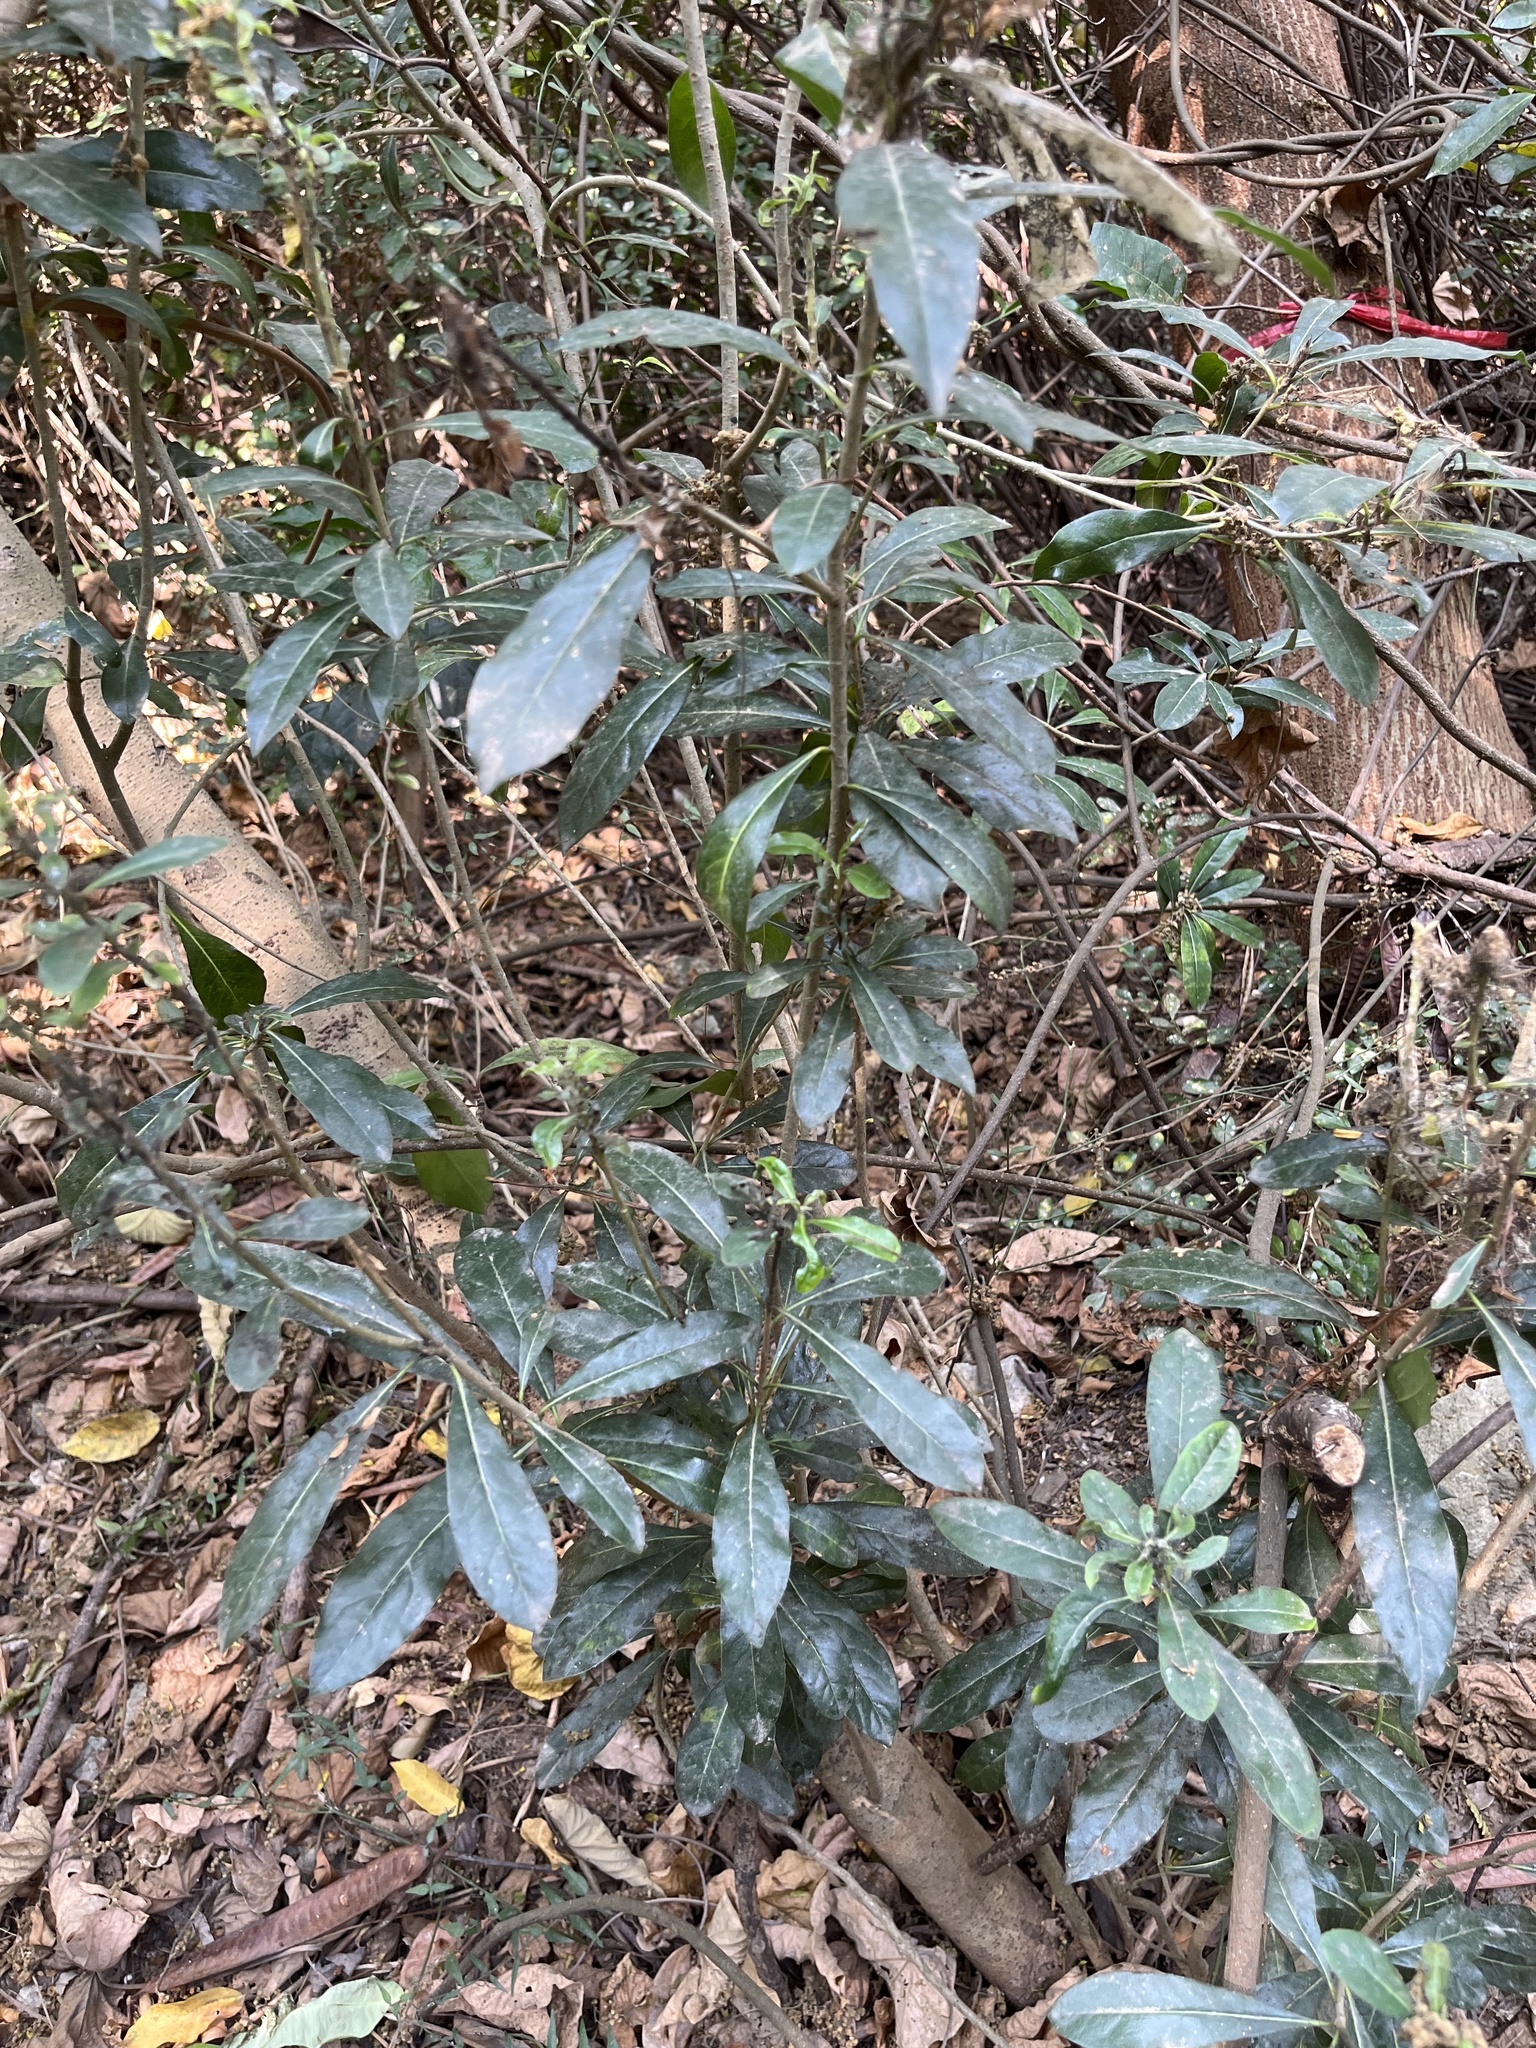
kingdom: Plantae
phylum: Tracheophyta
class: Magnoliopsida
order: Apiales
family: Pittosporaceae
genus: Pittosporum
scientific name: Pittosporum pentandrum
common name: Taiwanese cheesewood
